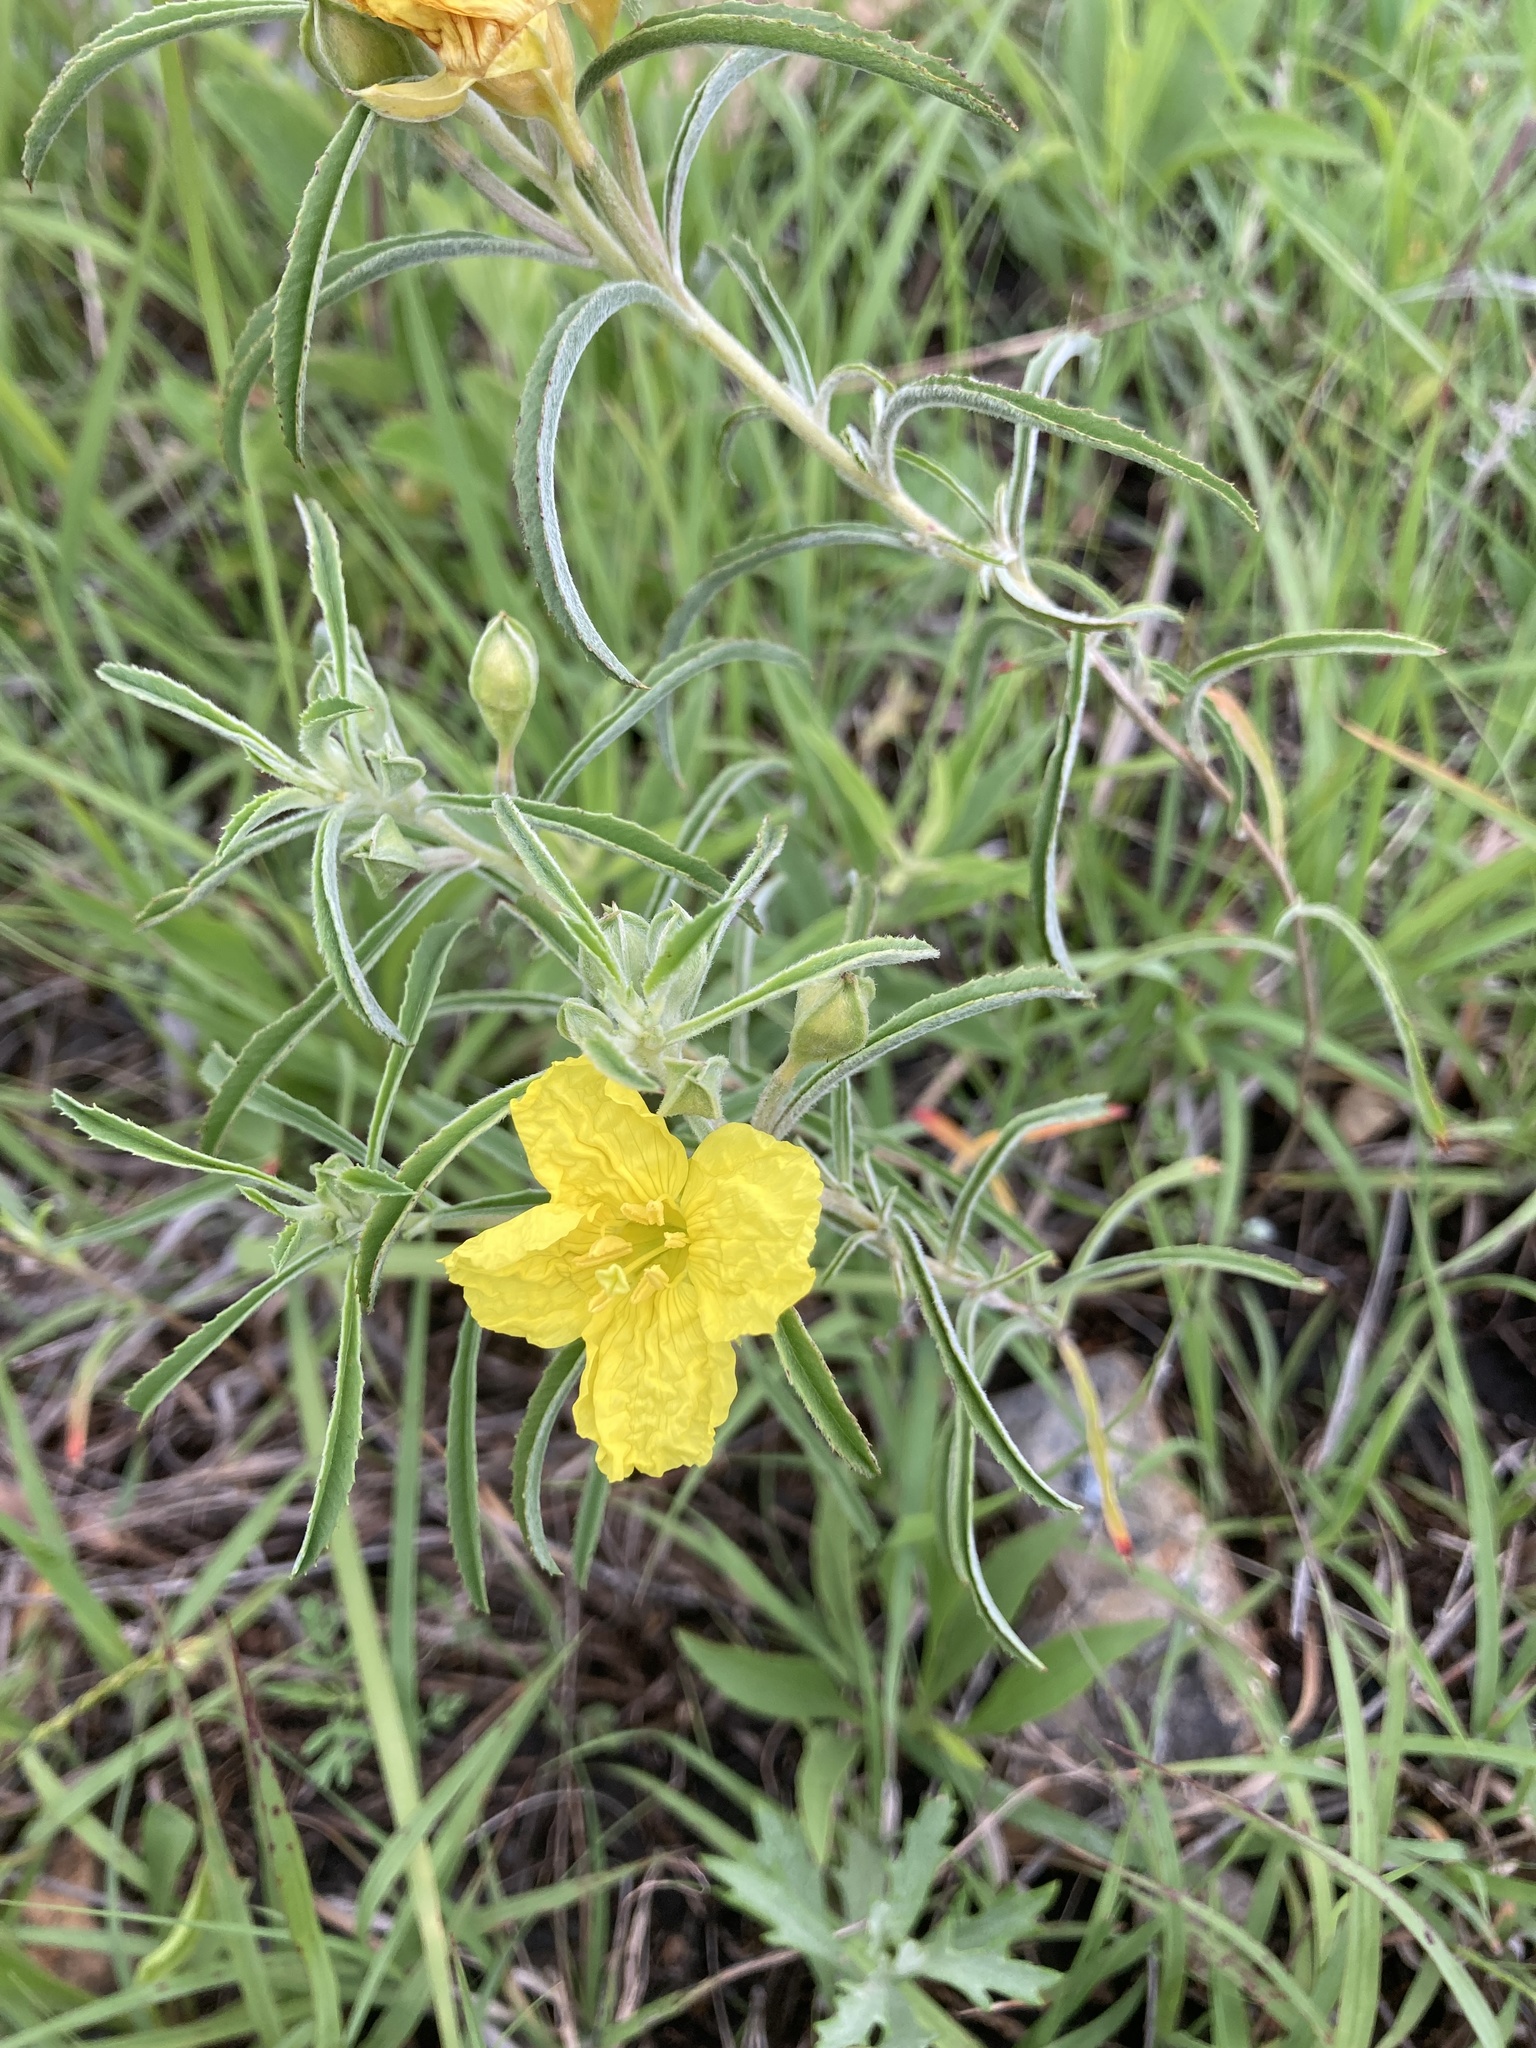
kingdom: Plantae
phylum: Tracheophyta
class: Magnoliopsida
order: Myrtales
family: Onagraceae
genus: Oenothera
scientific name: Oenothera serrulata
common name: Half-shrub calylophus
